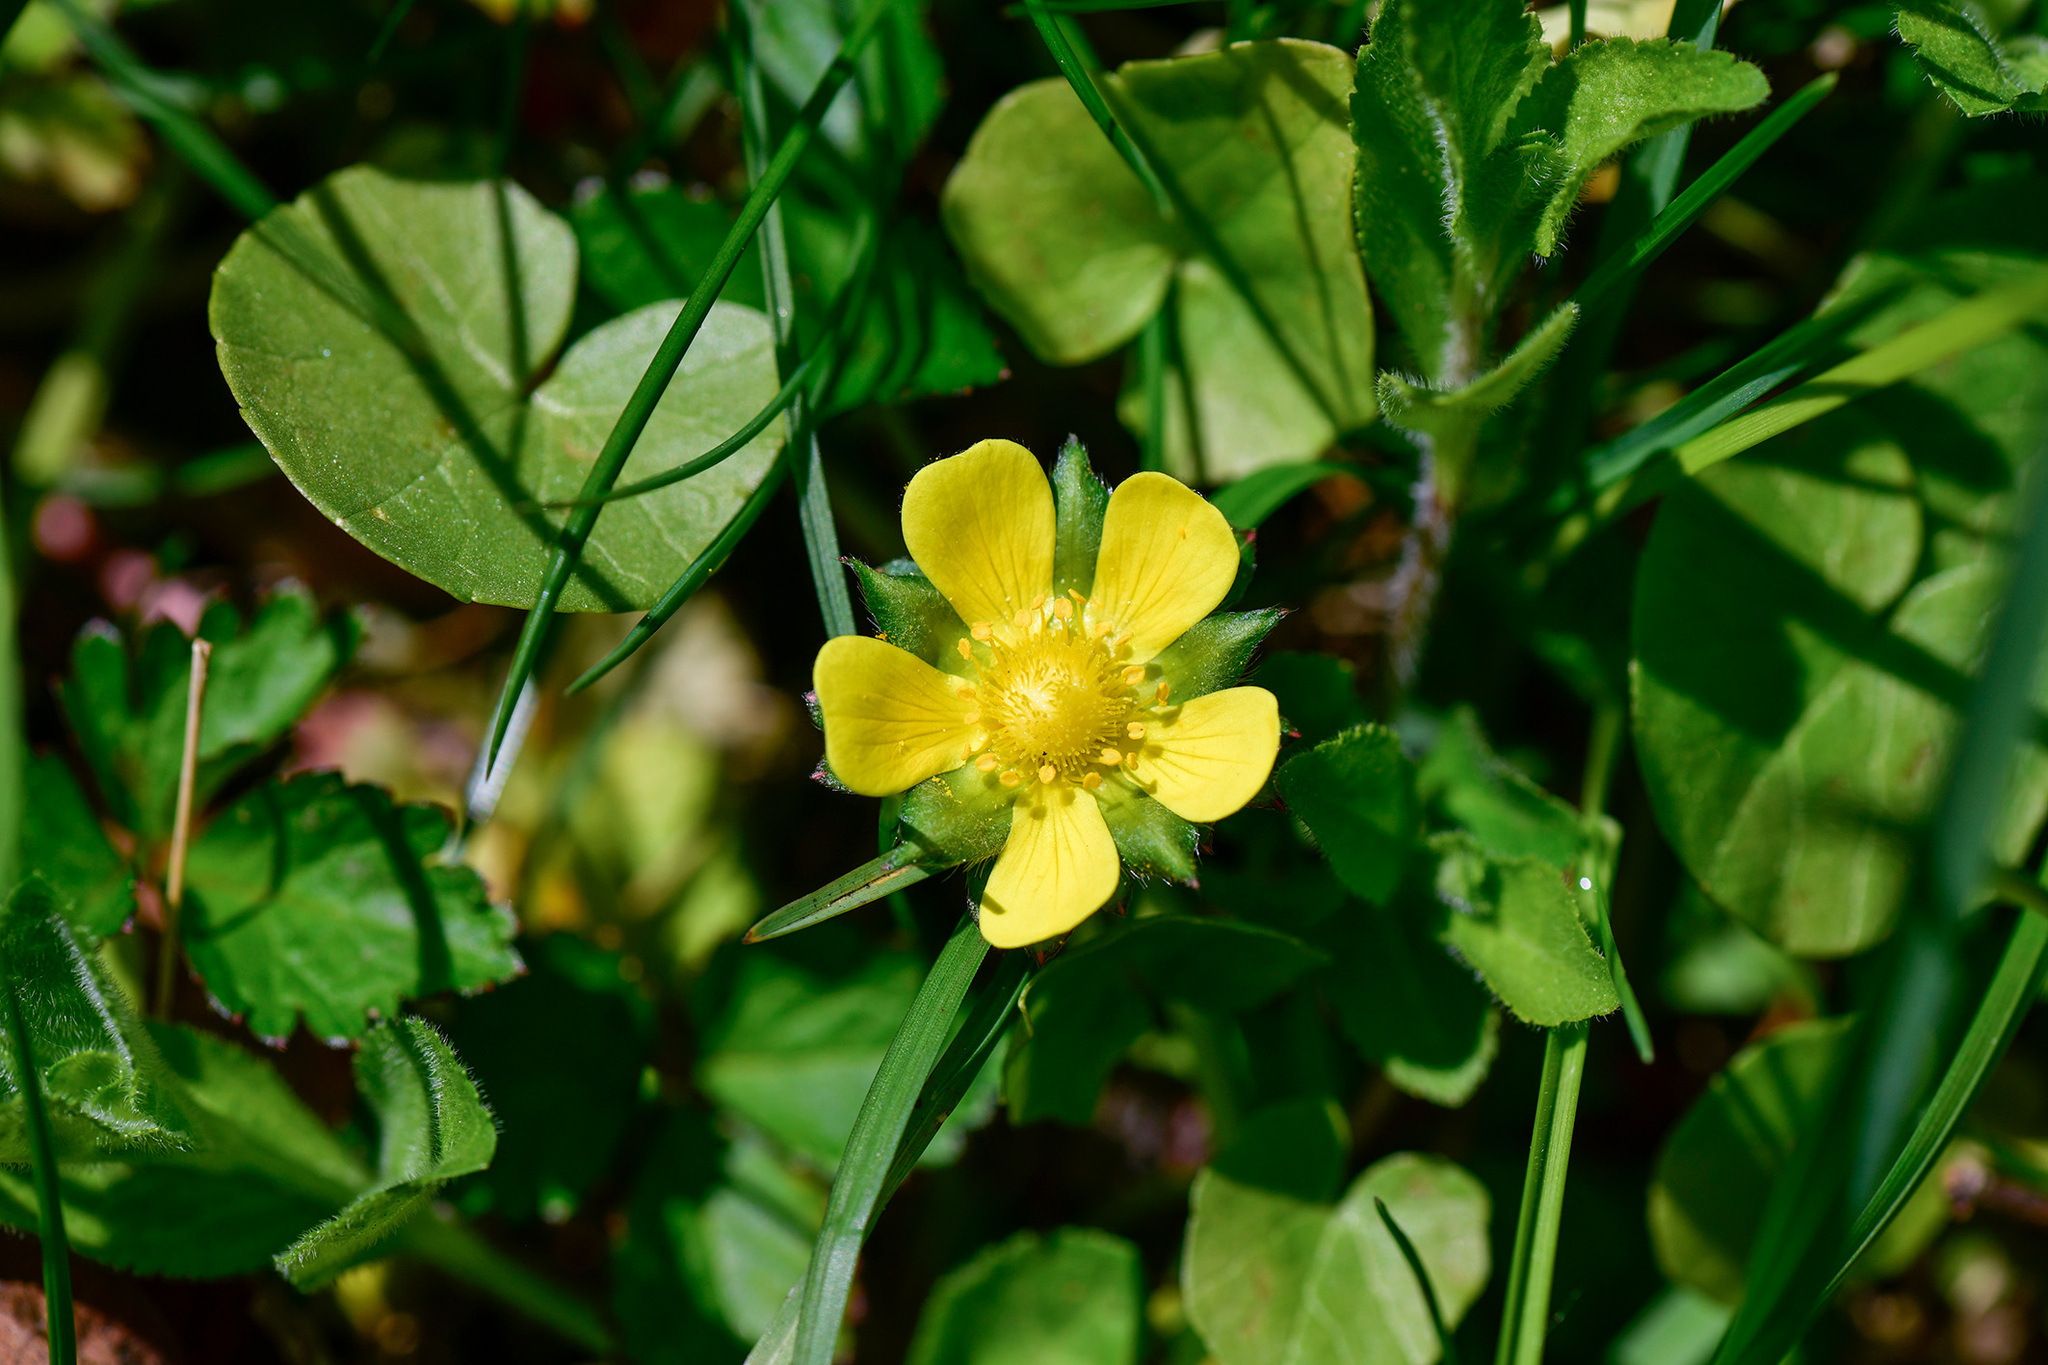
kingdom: Plantae
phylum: Tracheophyta
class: Magnoliopsida
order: Rosales
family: Rosaceae
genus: Potentilla
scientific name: Potentilla indica
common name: Yellow-flowered strawberry
